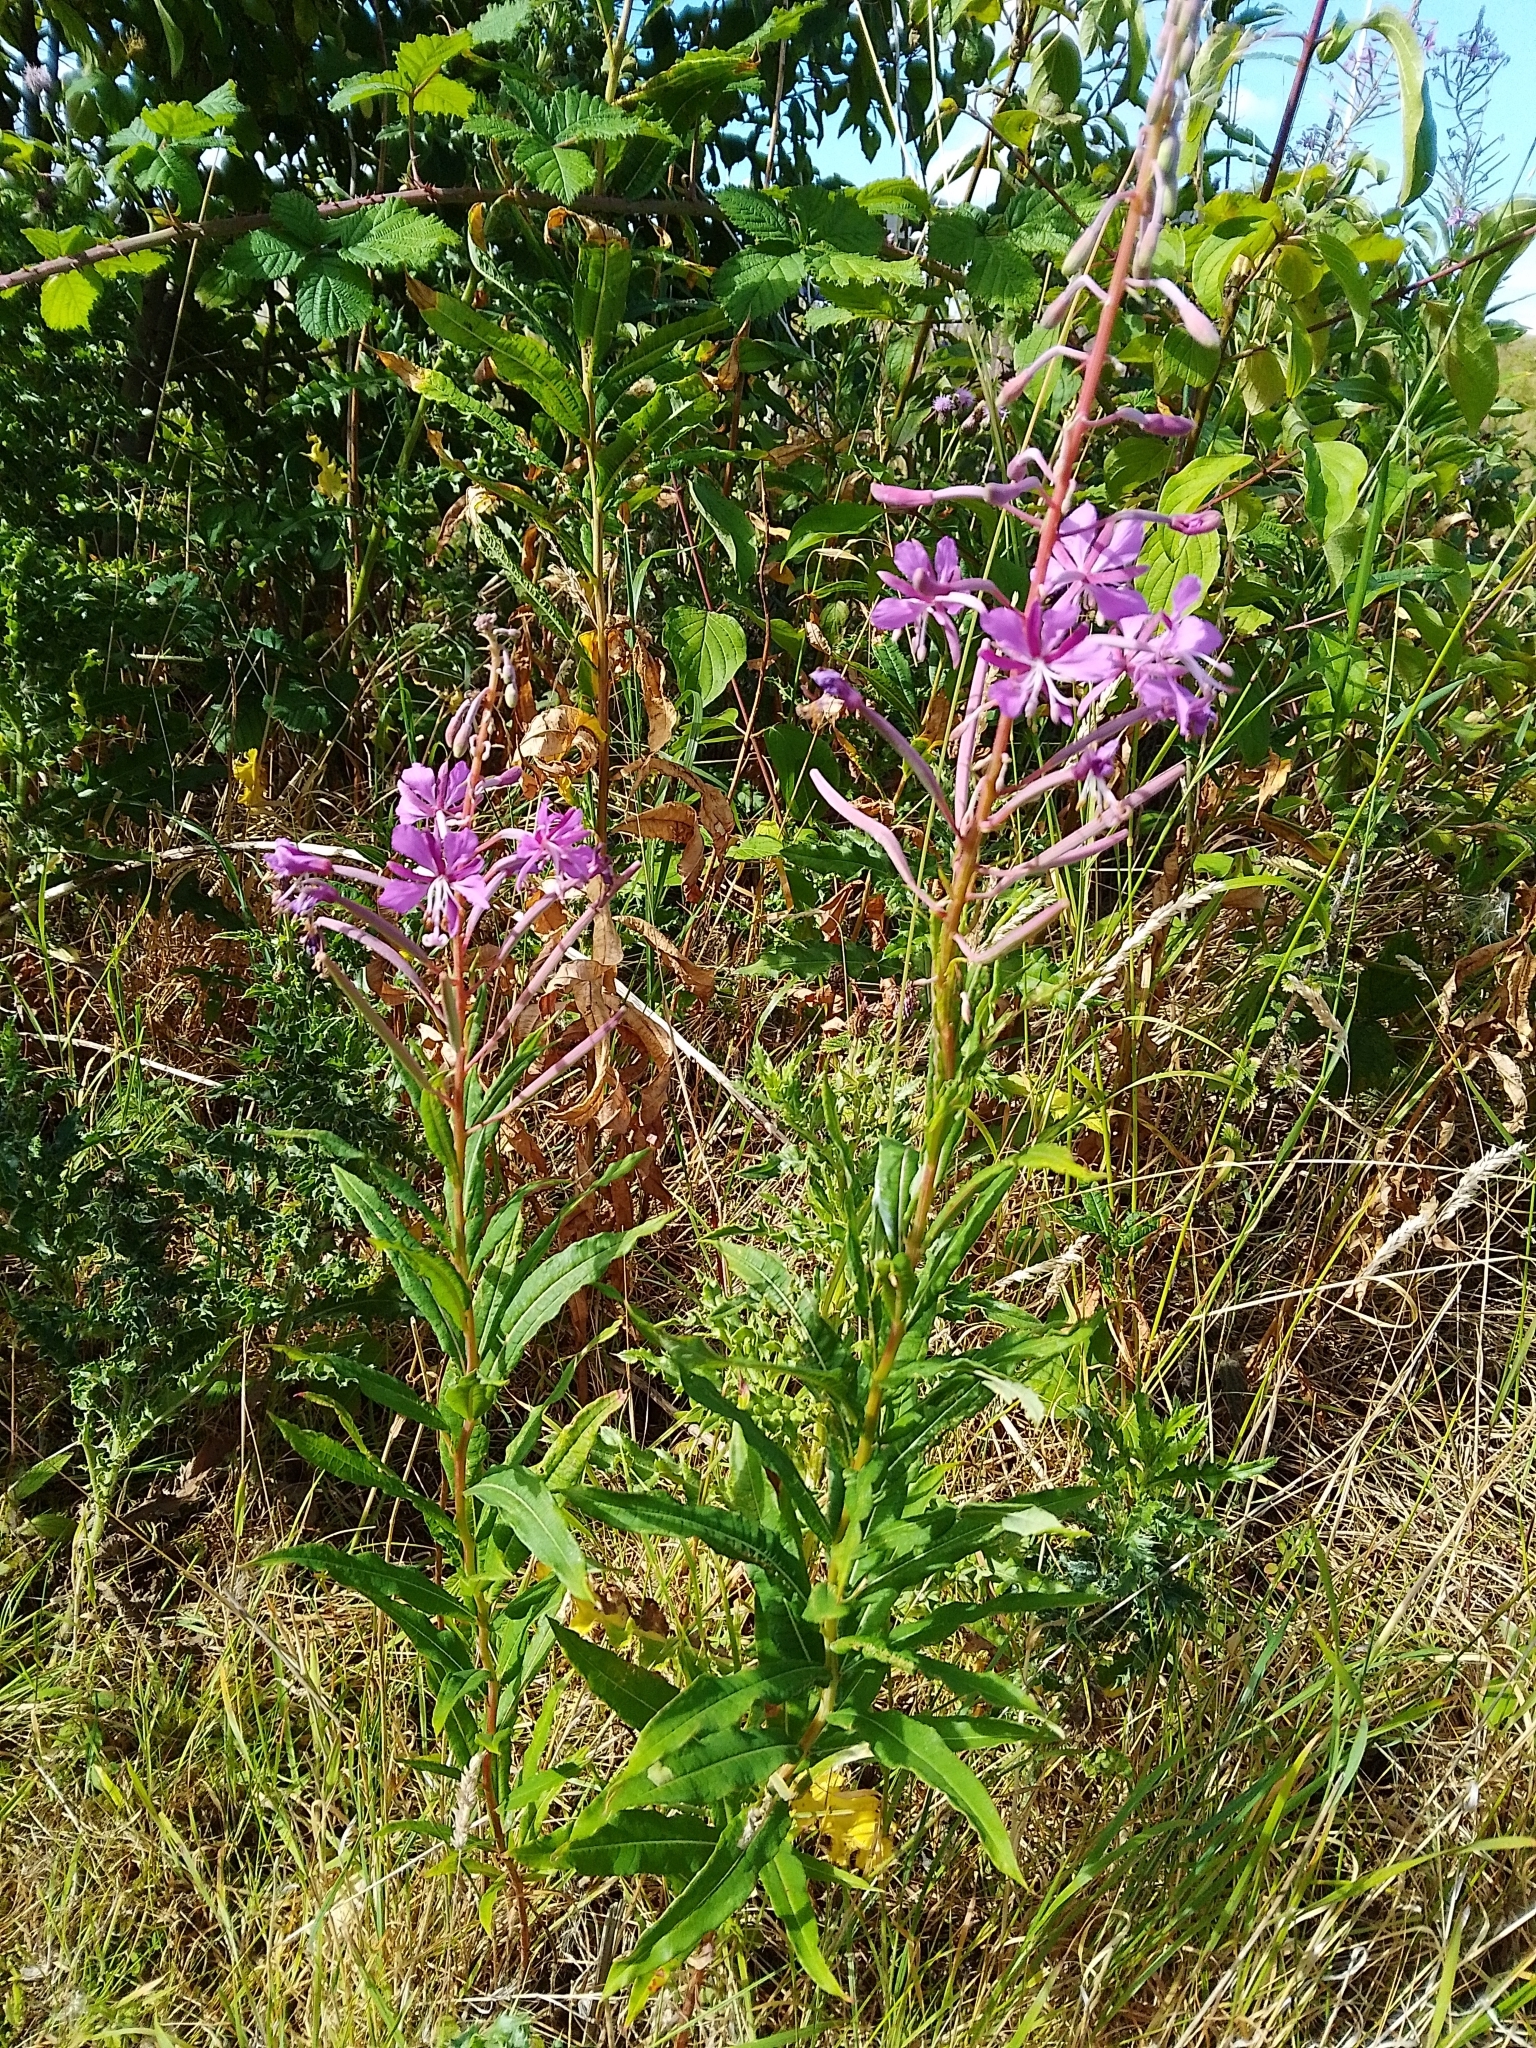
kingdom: Plantae
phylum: Tracheophyta
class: Magnoliopsida
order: Myrtales
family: Onagraceae
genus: Chamaenerion
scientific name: Chamaenerion angustifolium
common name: Fireweed
